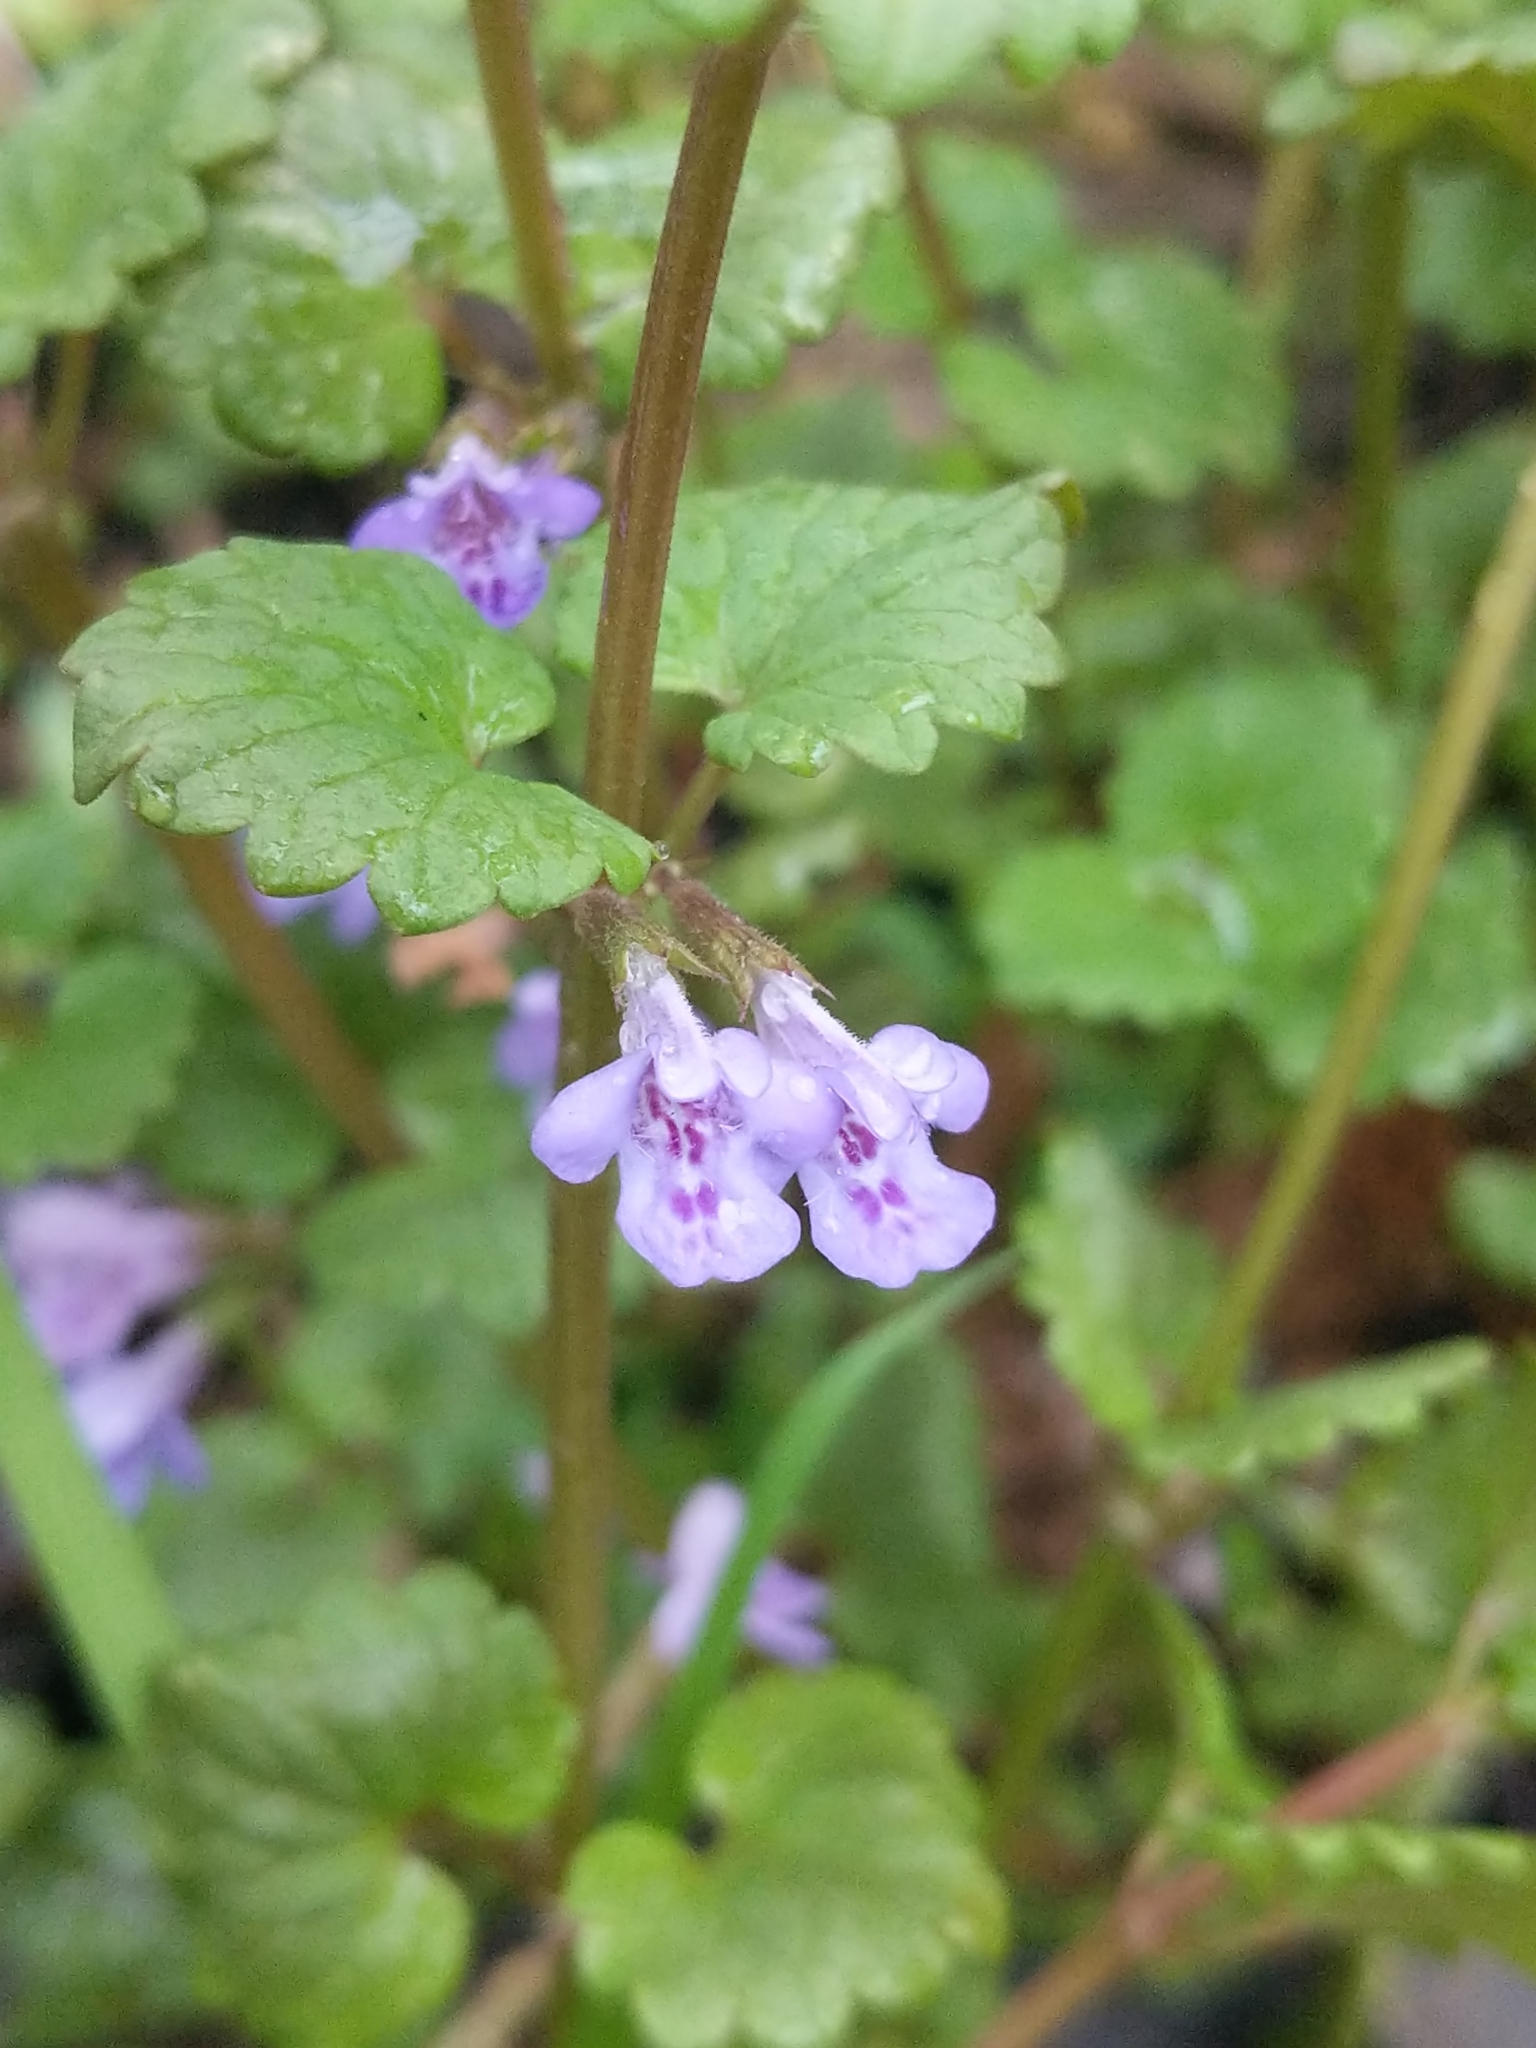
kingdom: Plantae
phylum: Tracheophyta
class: Magnoliopsida
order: Lamiales
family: Lamiaceae
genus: Glechoma
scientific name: Glechoma hederacea
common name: Ground ivy
